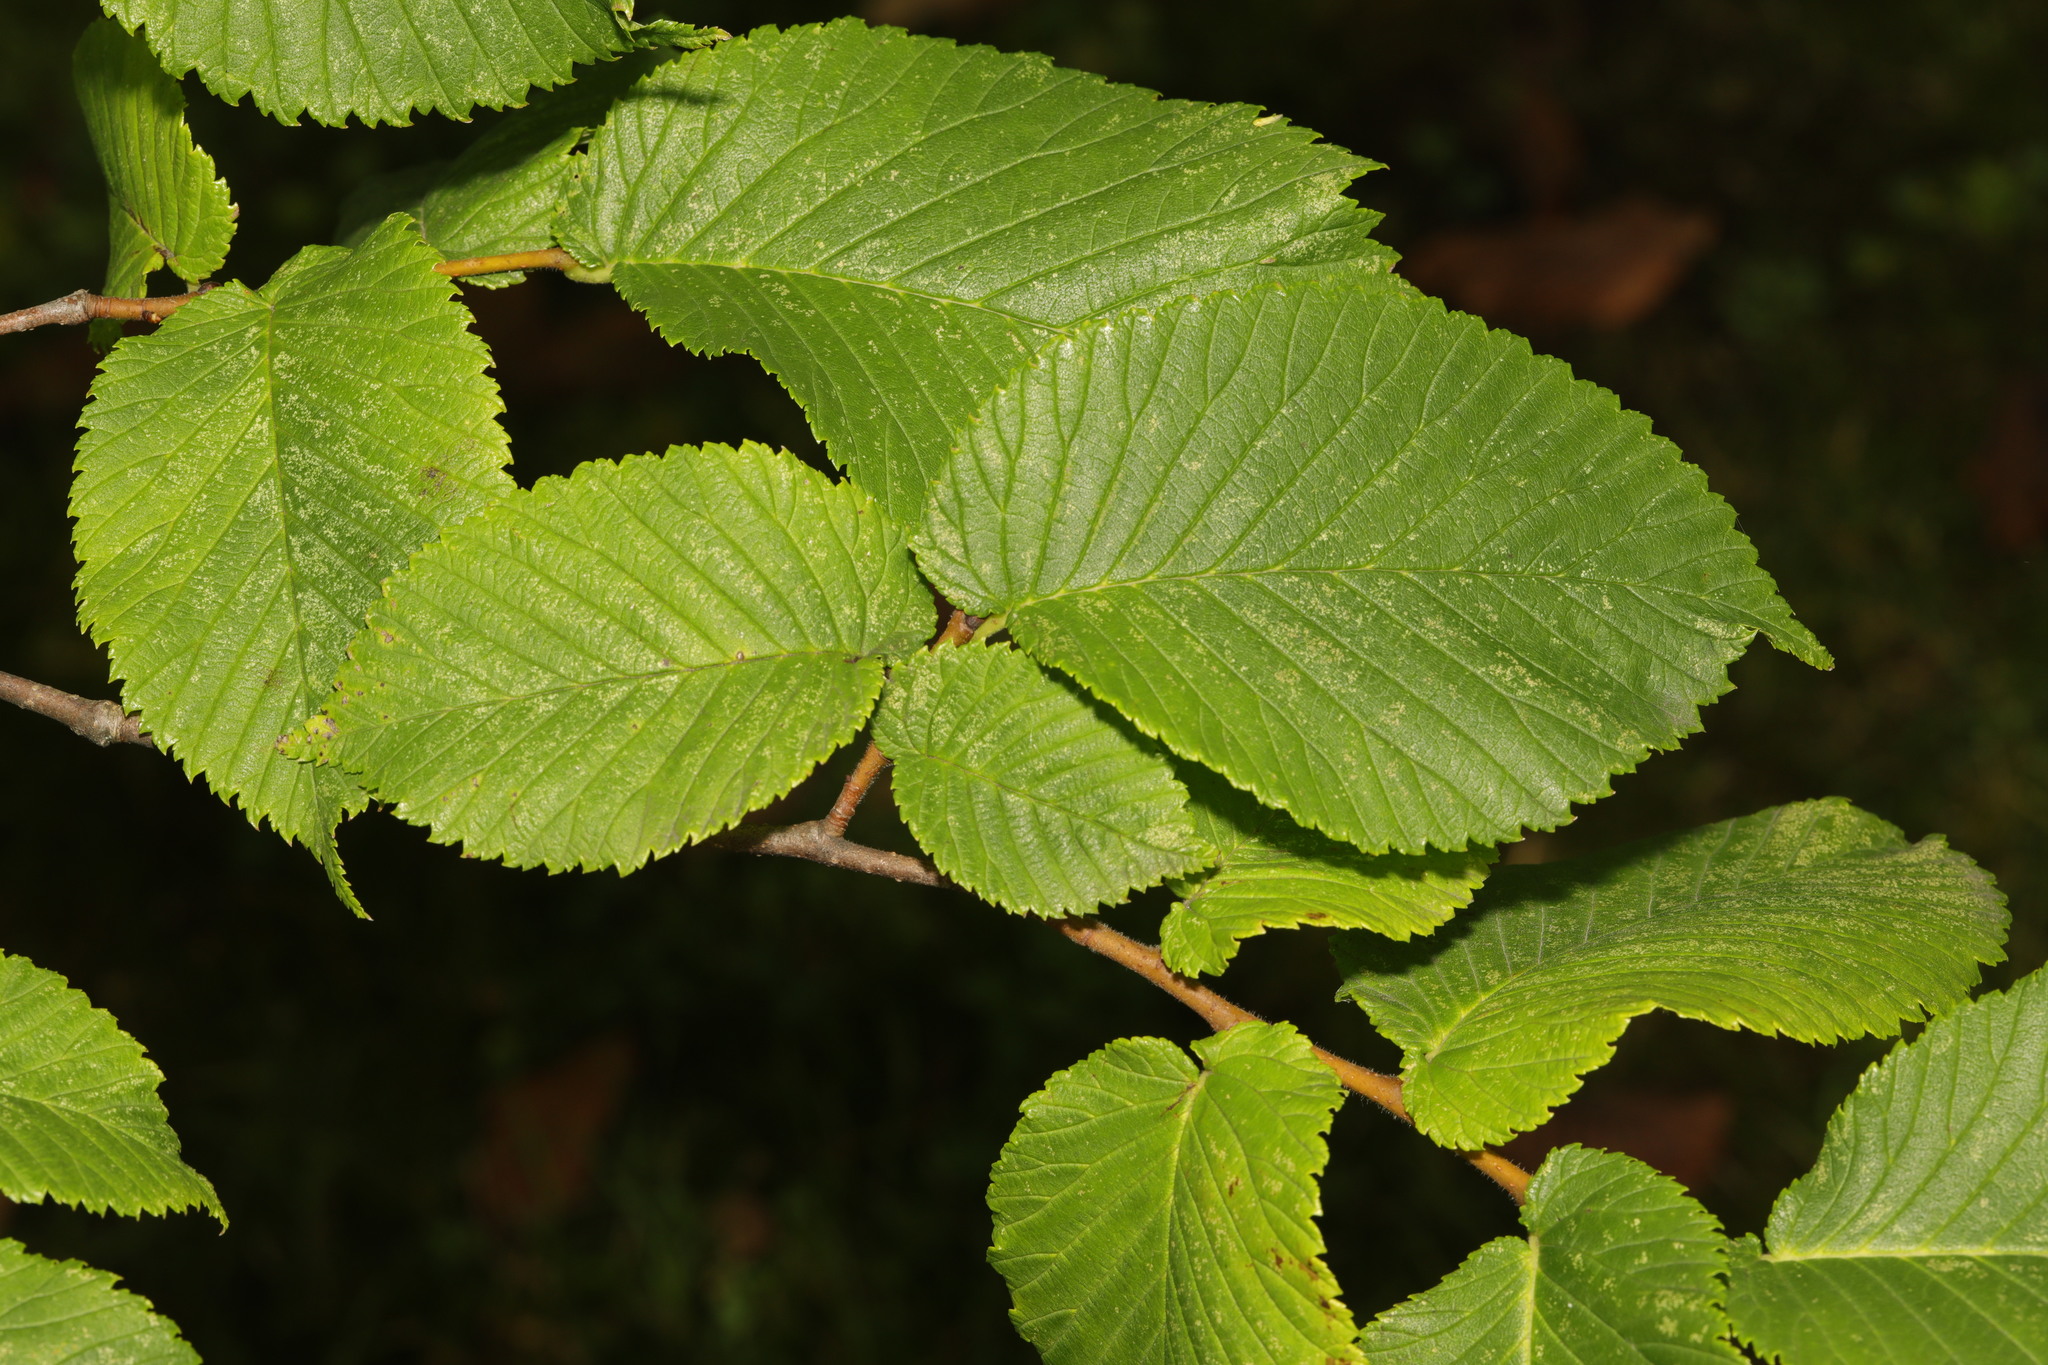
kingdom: Plantae
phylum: Tracheophyta
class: Magnoliopsida
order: Rosales
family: Ulmaceae
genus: Ulmus
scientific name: Ulmus glabra
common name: Wych elm
